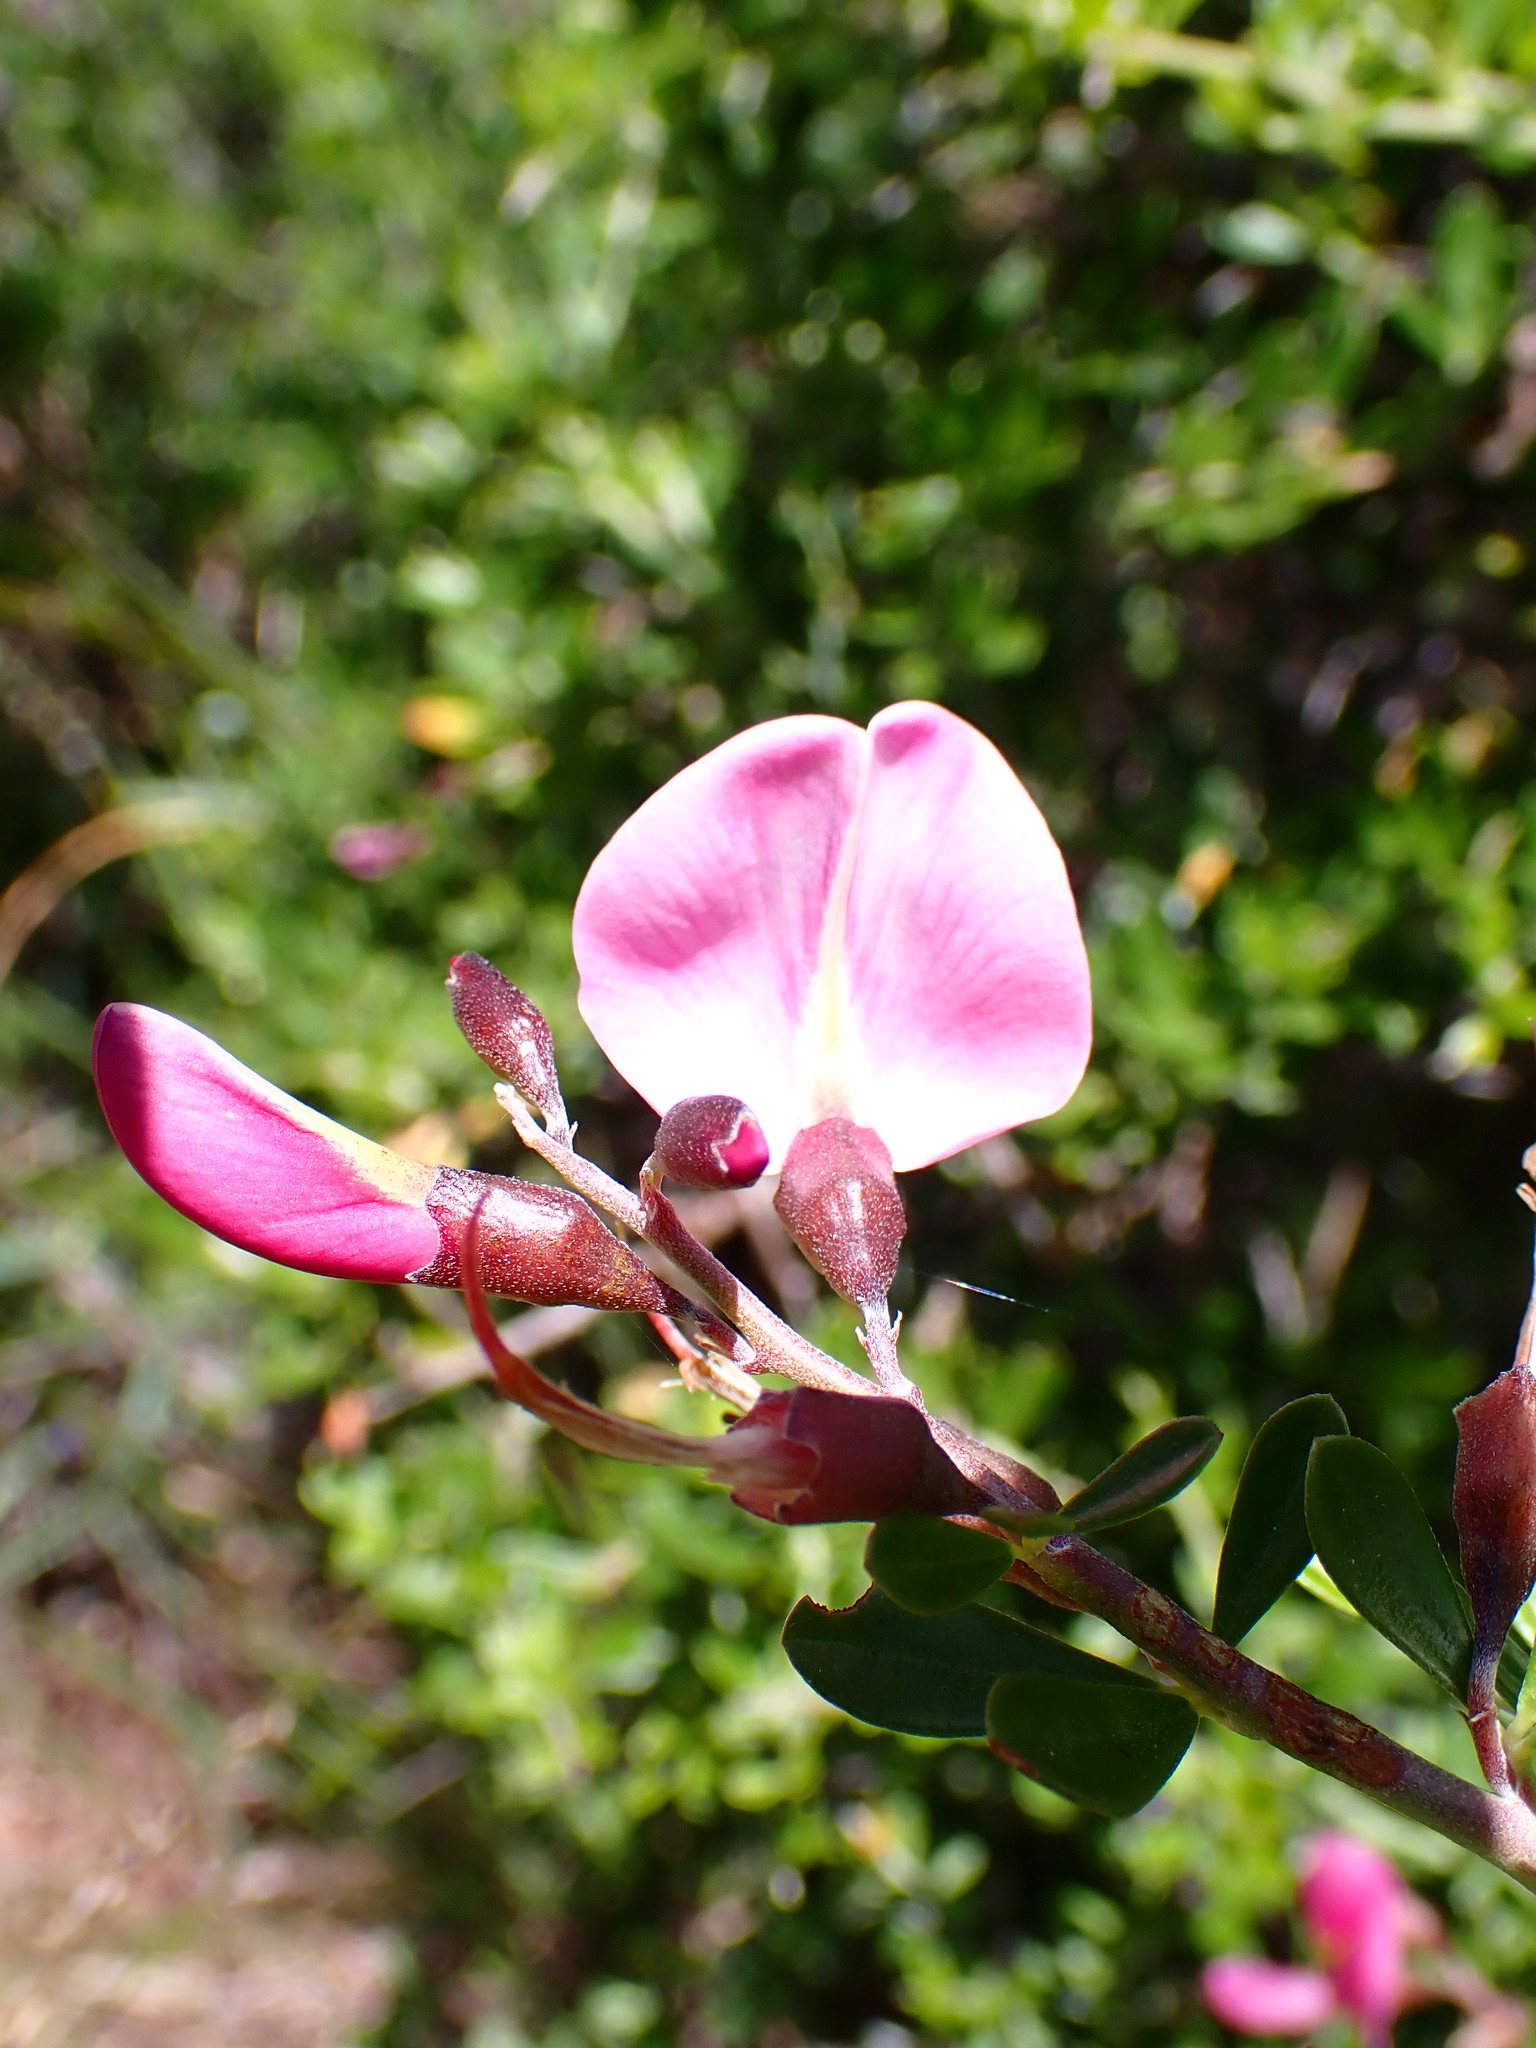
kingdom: Plantae
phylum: Tracheophyta
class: Magnoliopsida
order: Fabales
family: Fabaceae
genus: Pickeringia
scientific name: Pickeringia montana
